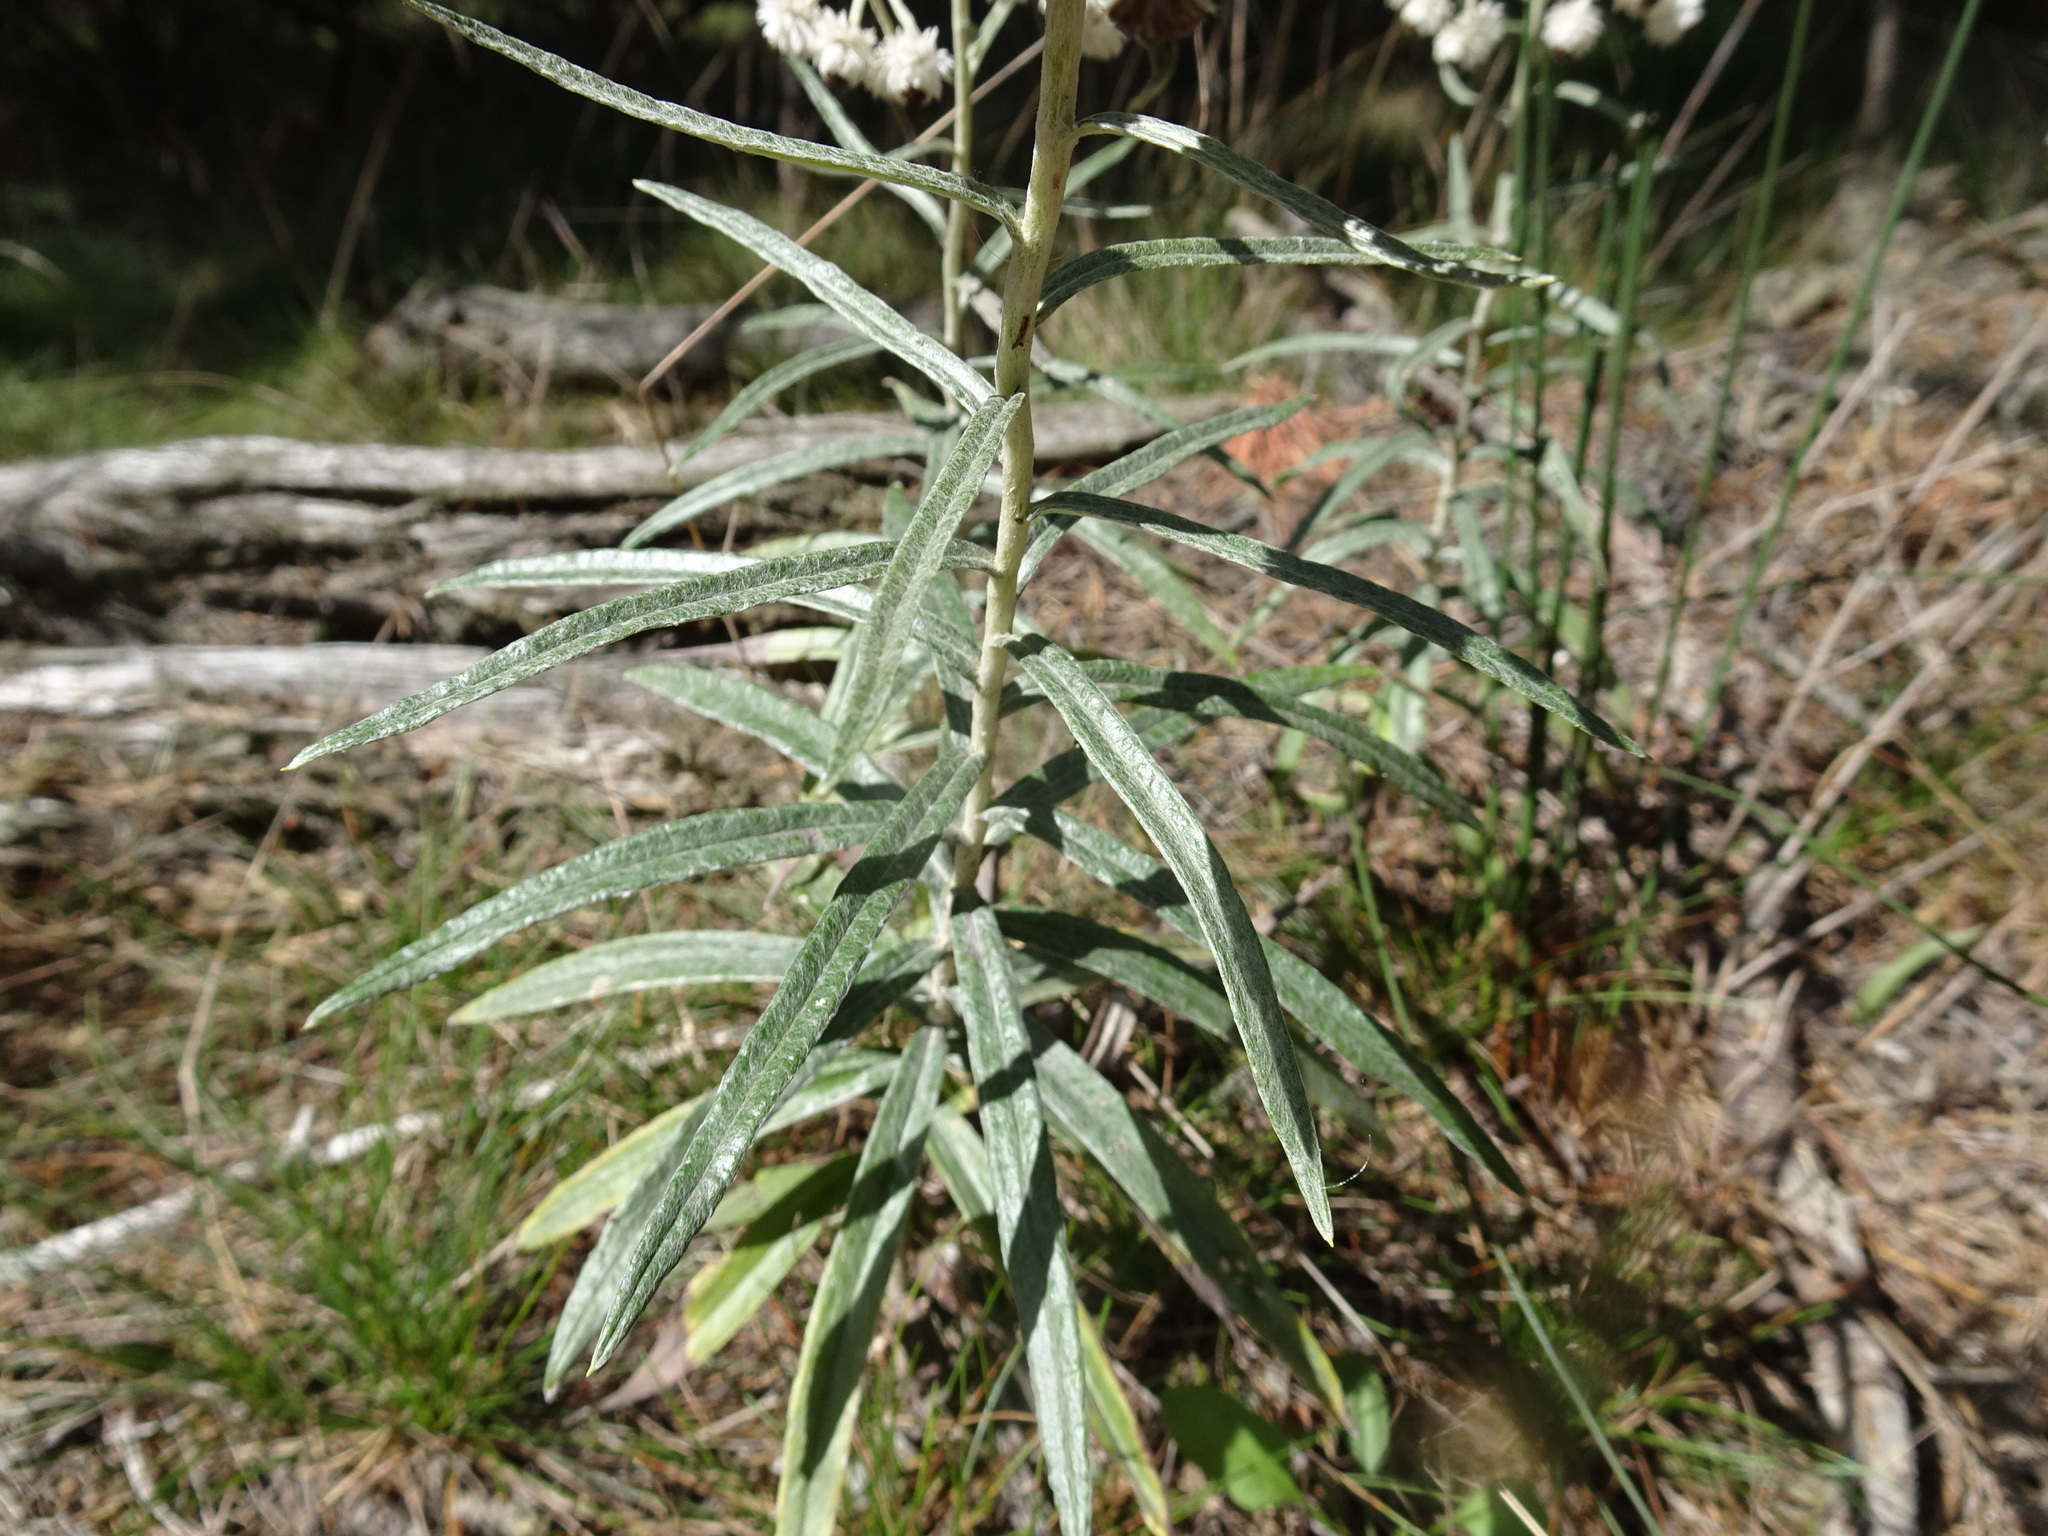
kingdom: Plantae
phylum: Tracheophyta
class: Magnoliopsida
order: Asterales
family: Asteraceae
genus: Anaphalis
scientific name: Anaphalis margaritacea
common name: Pearly everlasting
